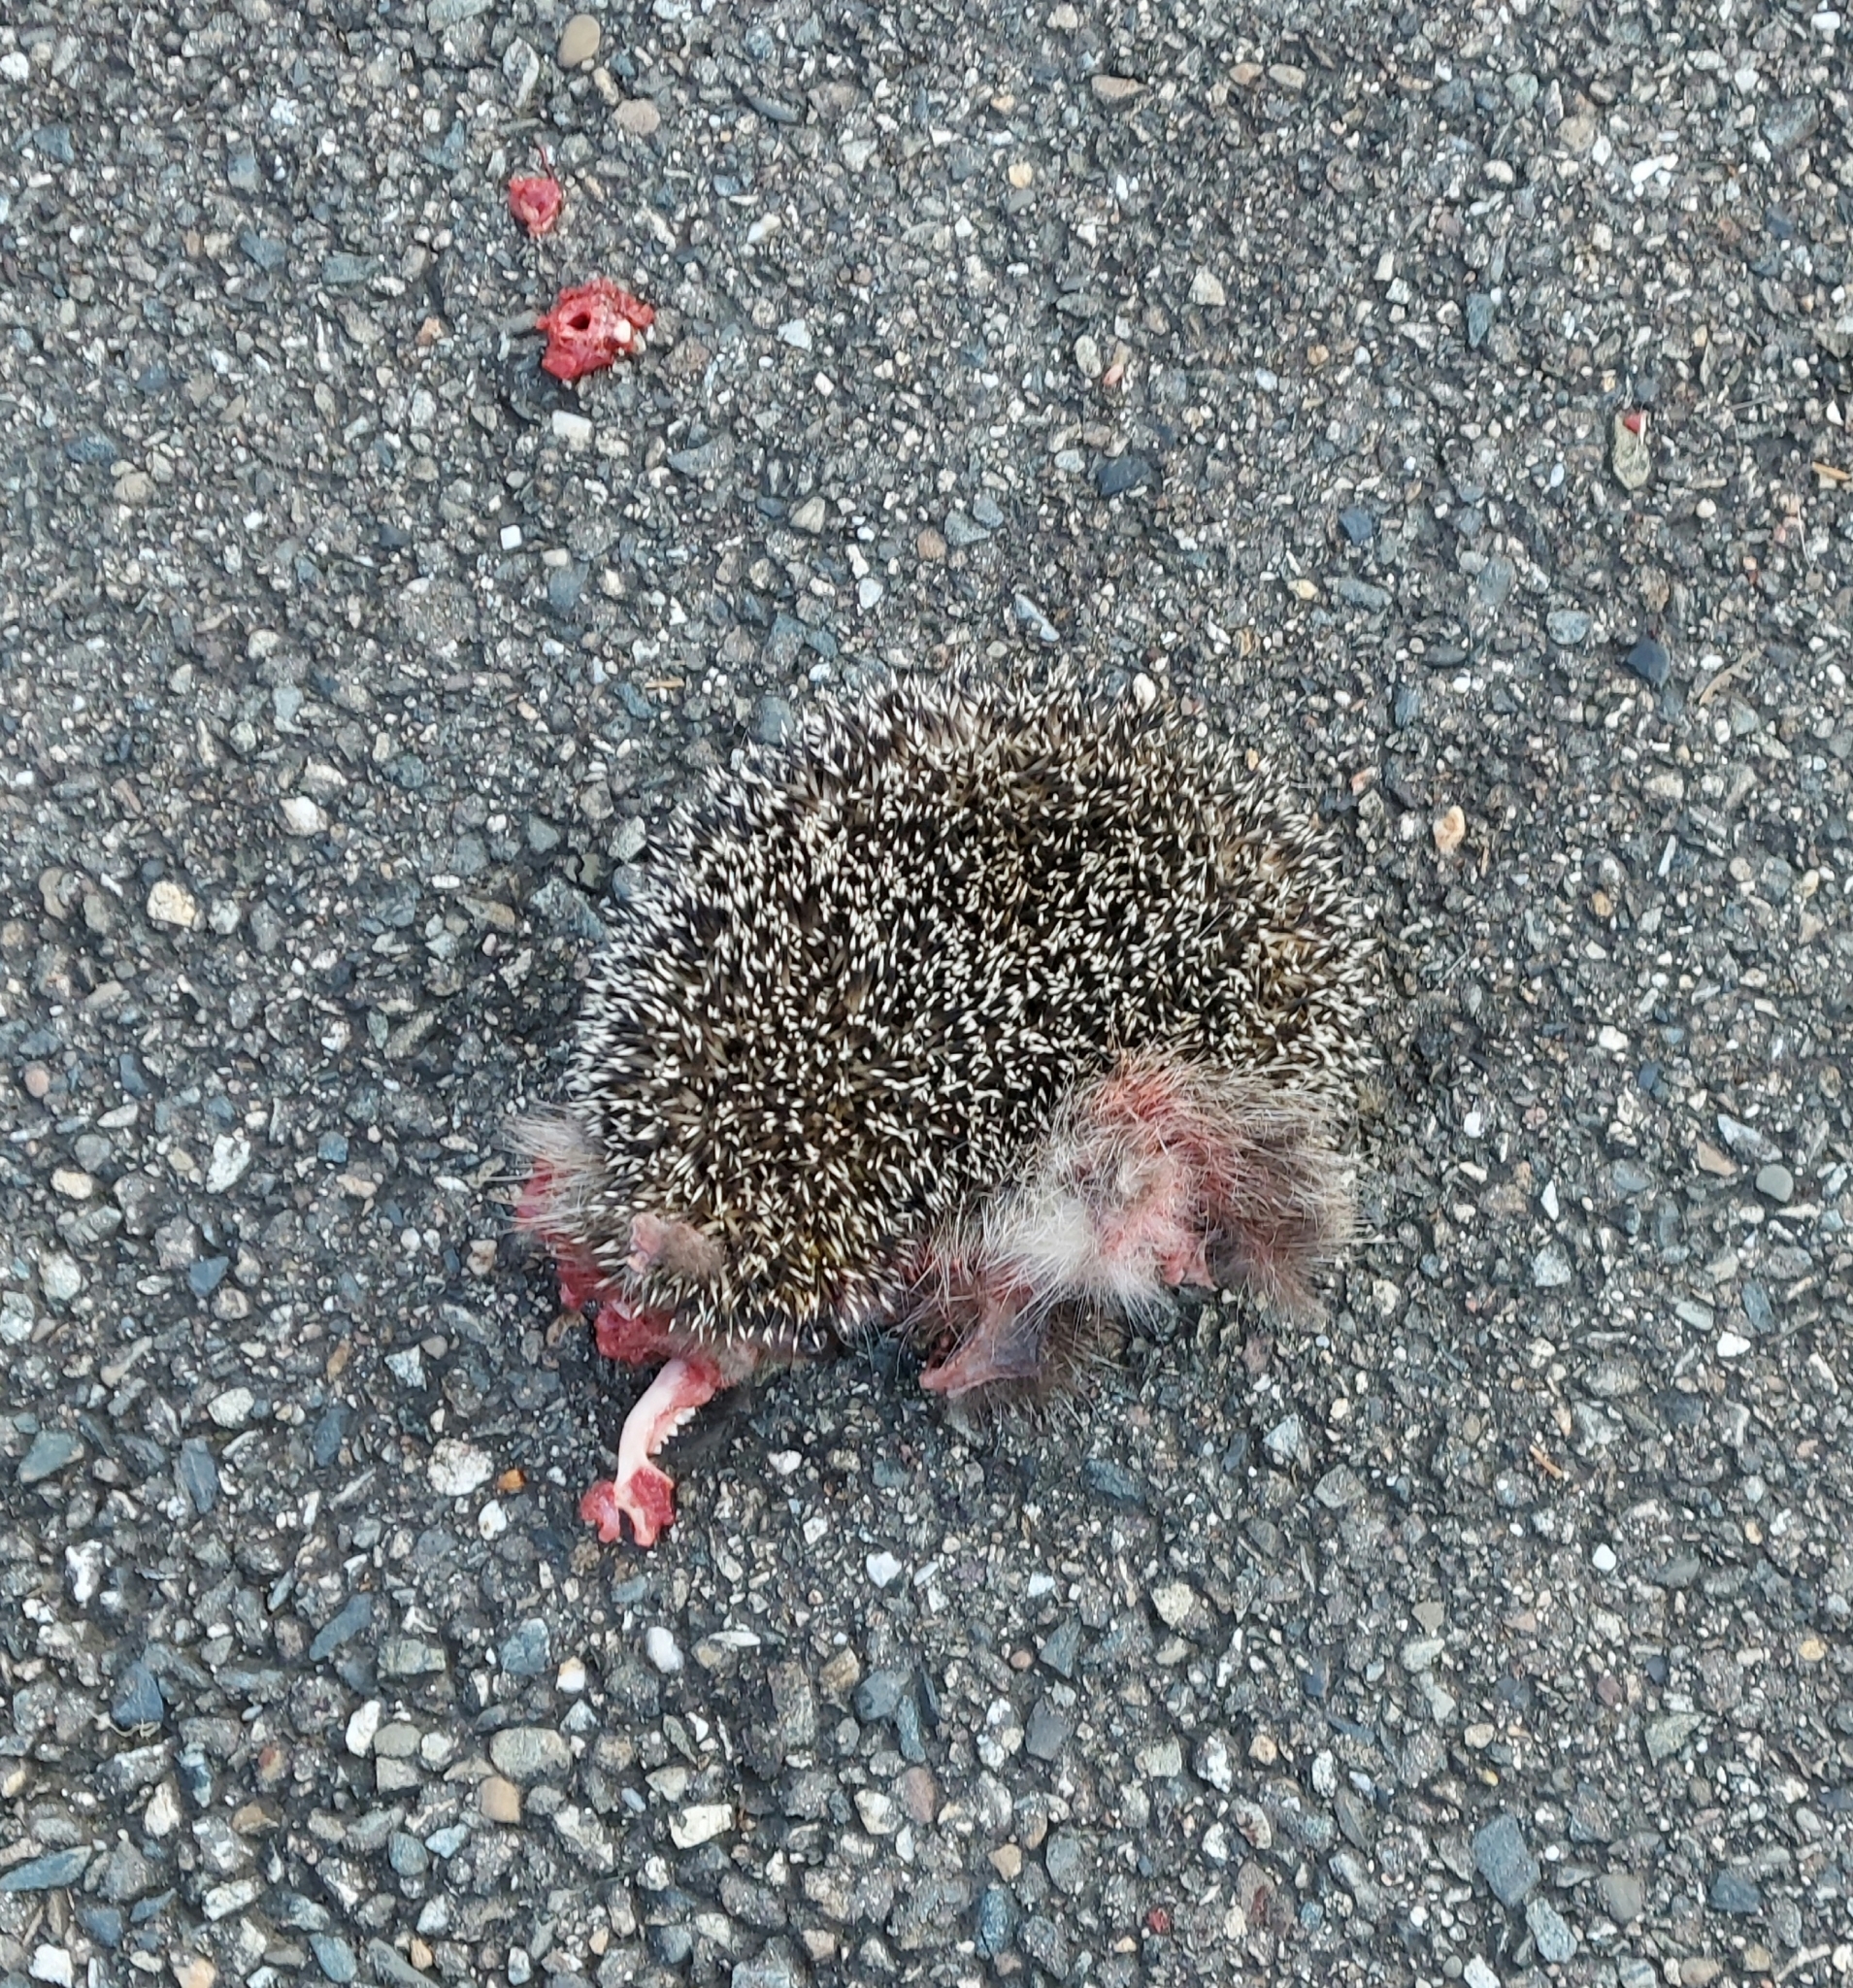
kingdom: Animalia
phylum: Chordata
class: Mammalia
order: Erinaceomorpha
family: Erinaceidae
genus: Erinaceus
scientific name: Erinaceus roumanicus
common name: Northern white-breasted hedgehog
